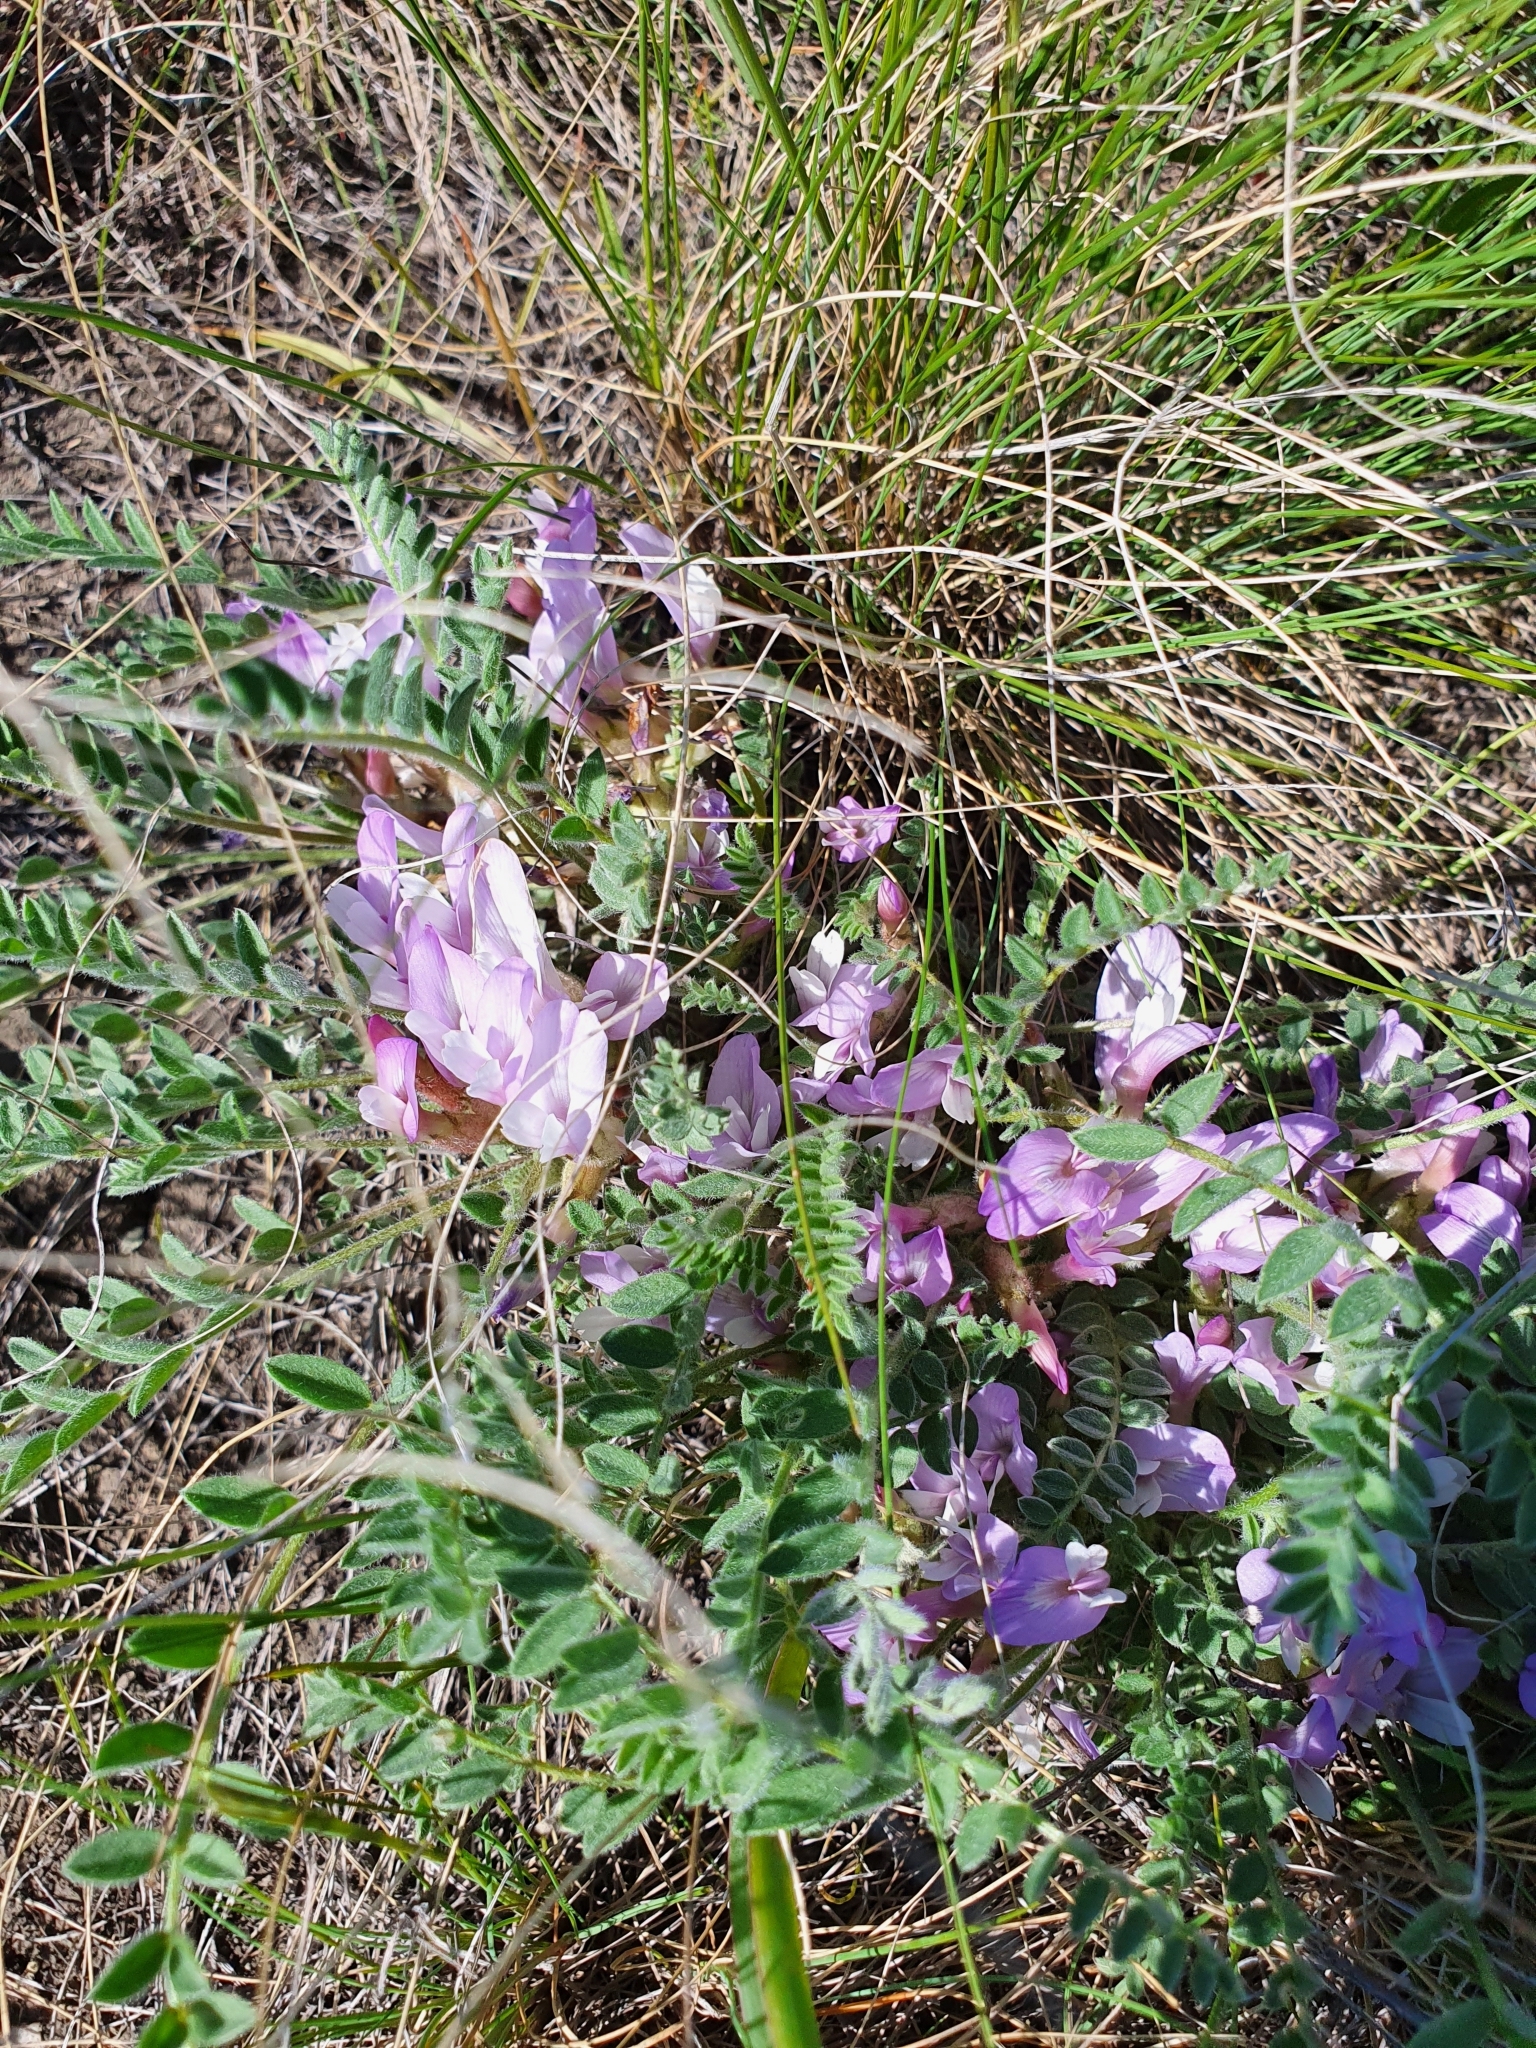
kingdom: Plantae
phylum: Tracheophyta
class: Magnoliopsida
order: Fabales
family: Fabaceae
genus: Astragalus
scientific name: Astragalus testiculatus
